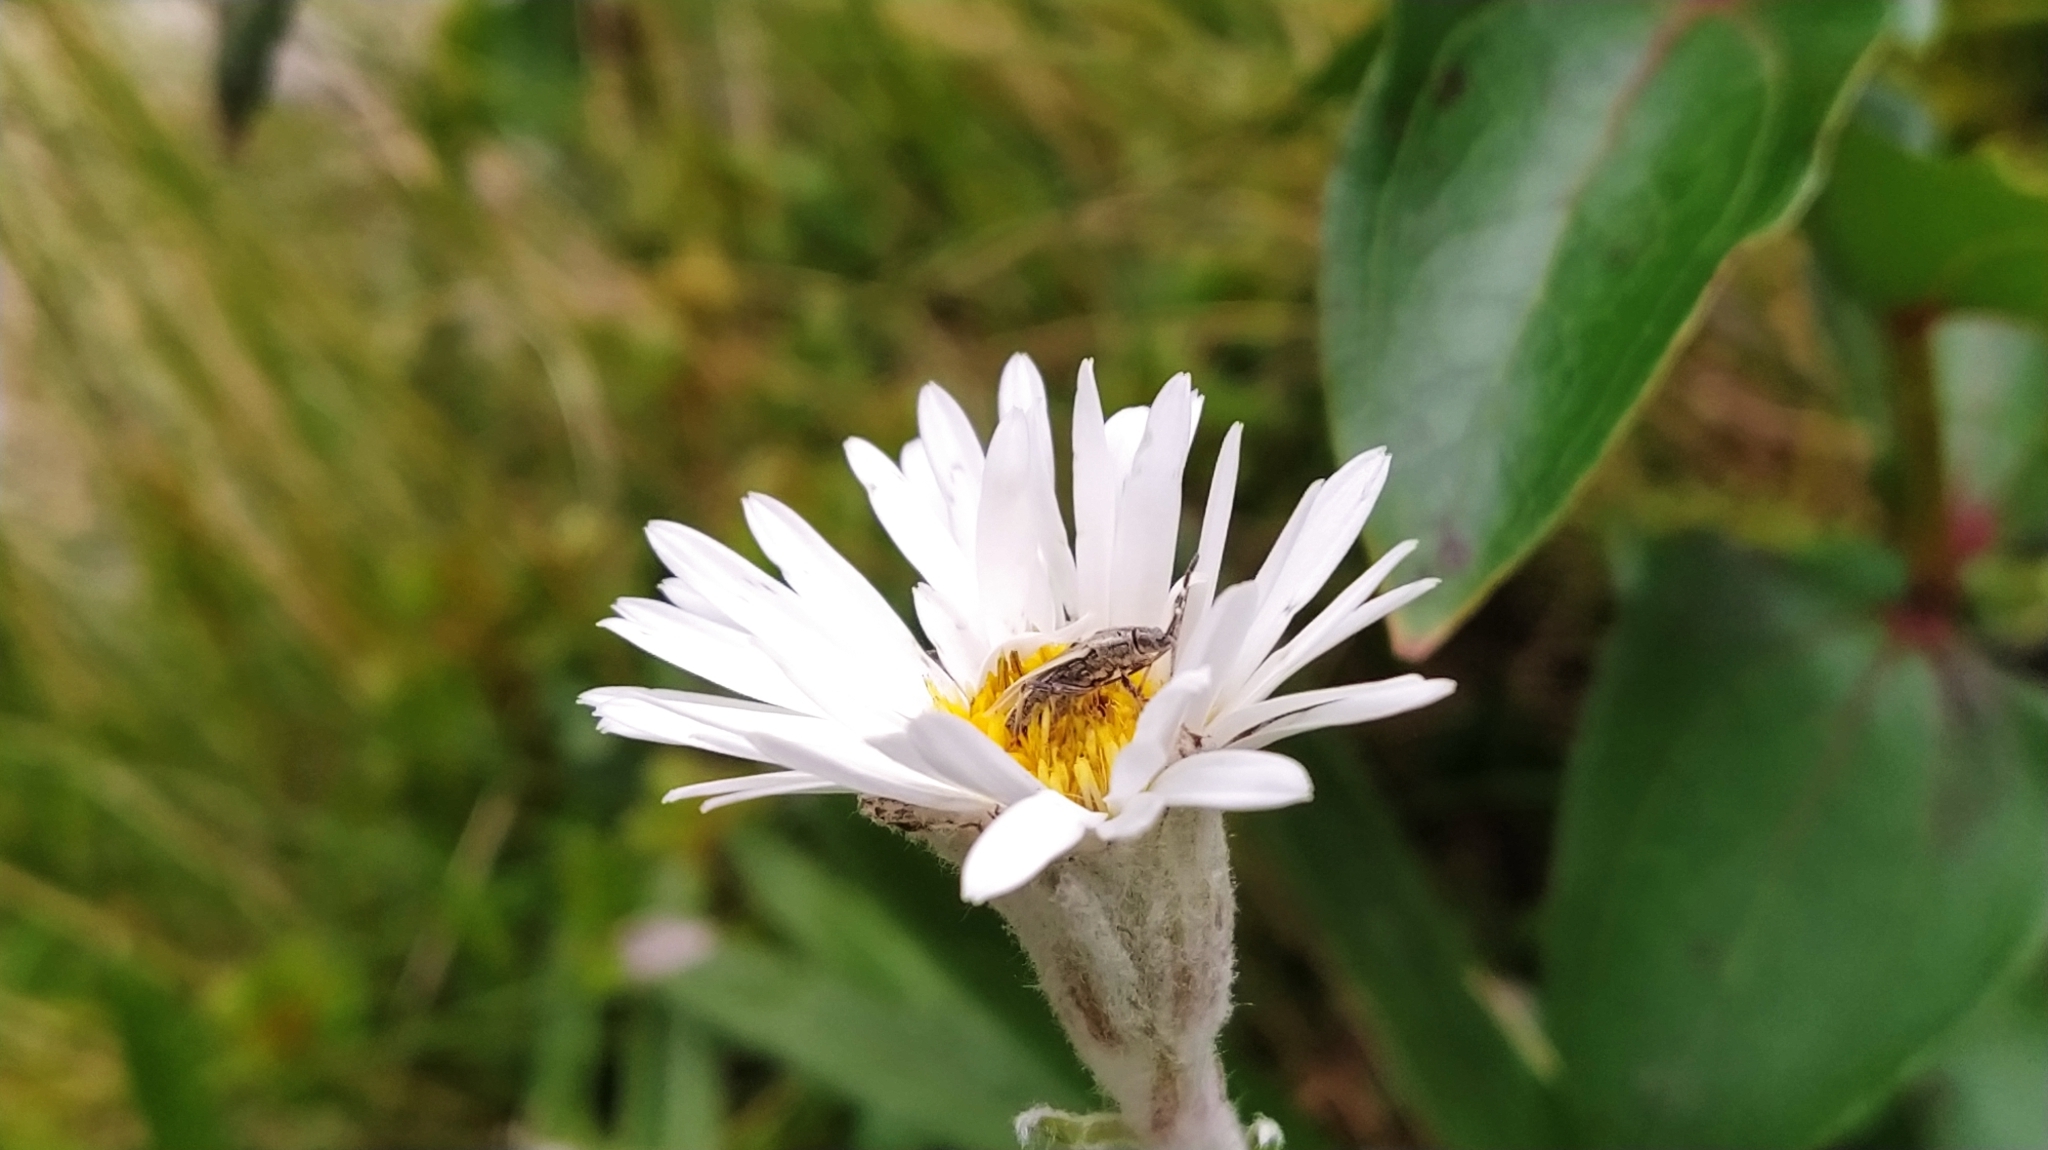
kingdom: Animalia
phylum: Arthropoda
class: Insecta
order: Hemiptera
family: Lygaeidae
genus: Rhypodes
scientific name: Rhypodes myersi
